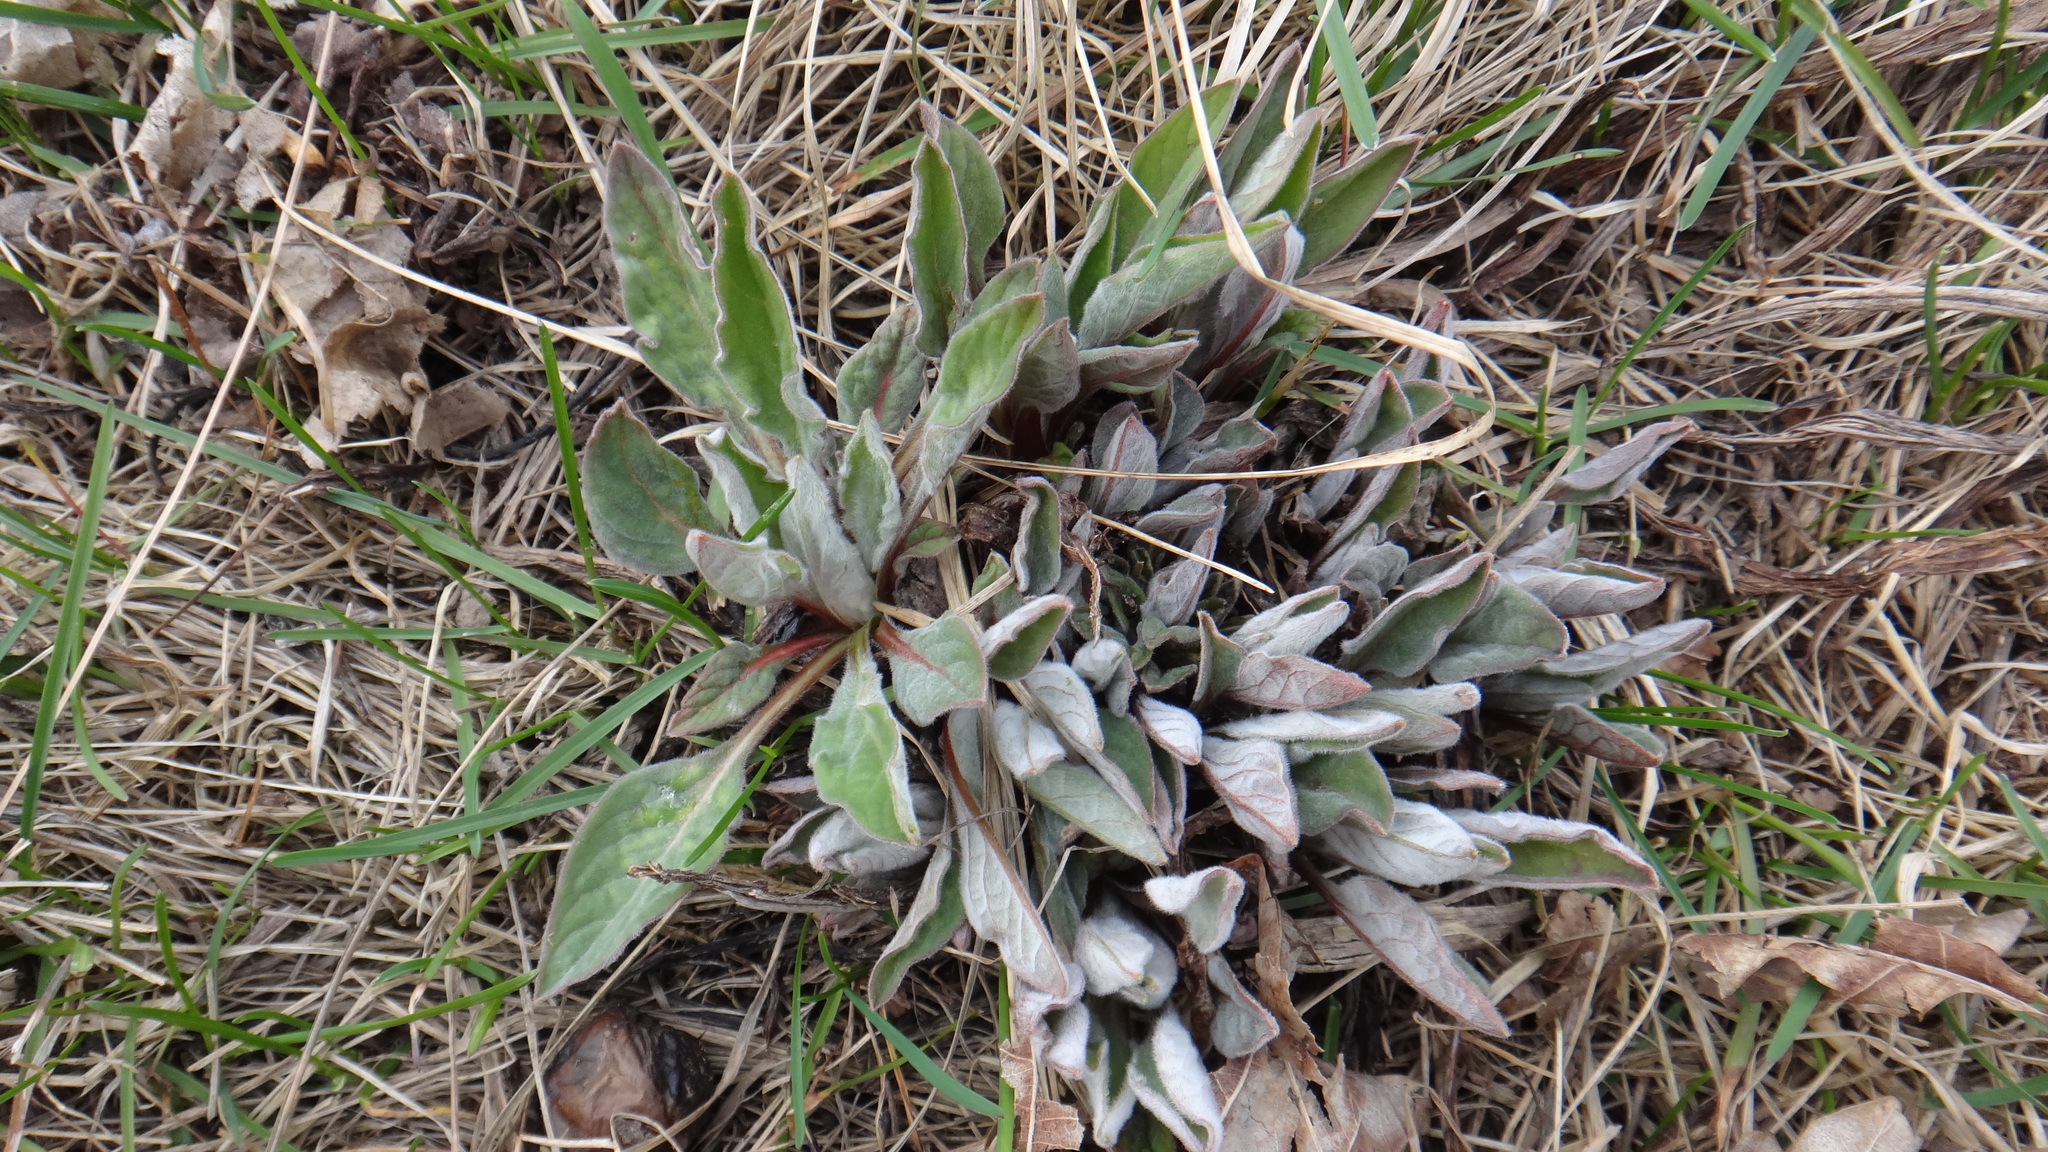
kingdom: Plantae
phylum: Tracheophyta
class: Magnoliopsida
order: Boraginales
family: Boraginaceae
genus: Cynoglossum
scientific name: Cynoglossum officinale
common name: Hound's-tongue
